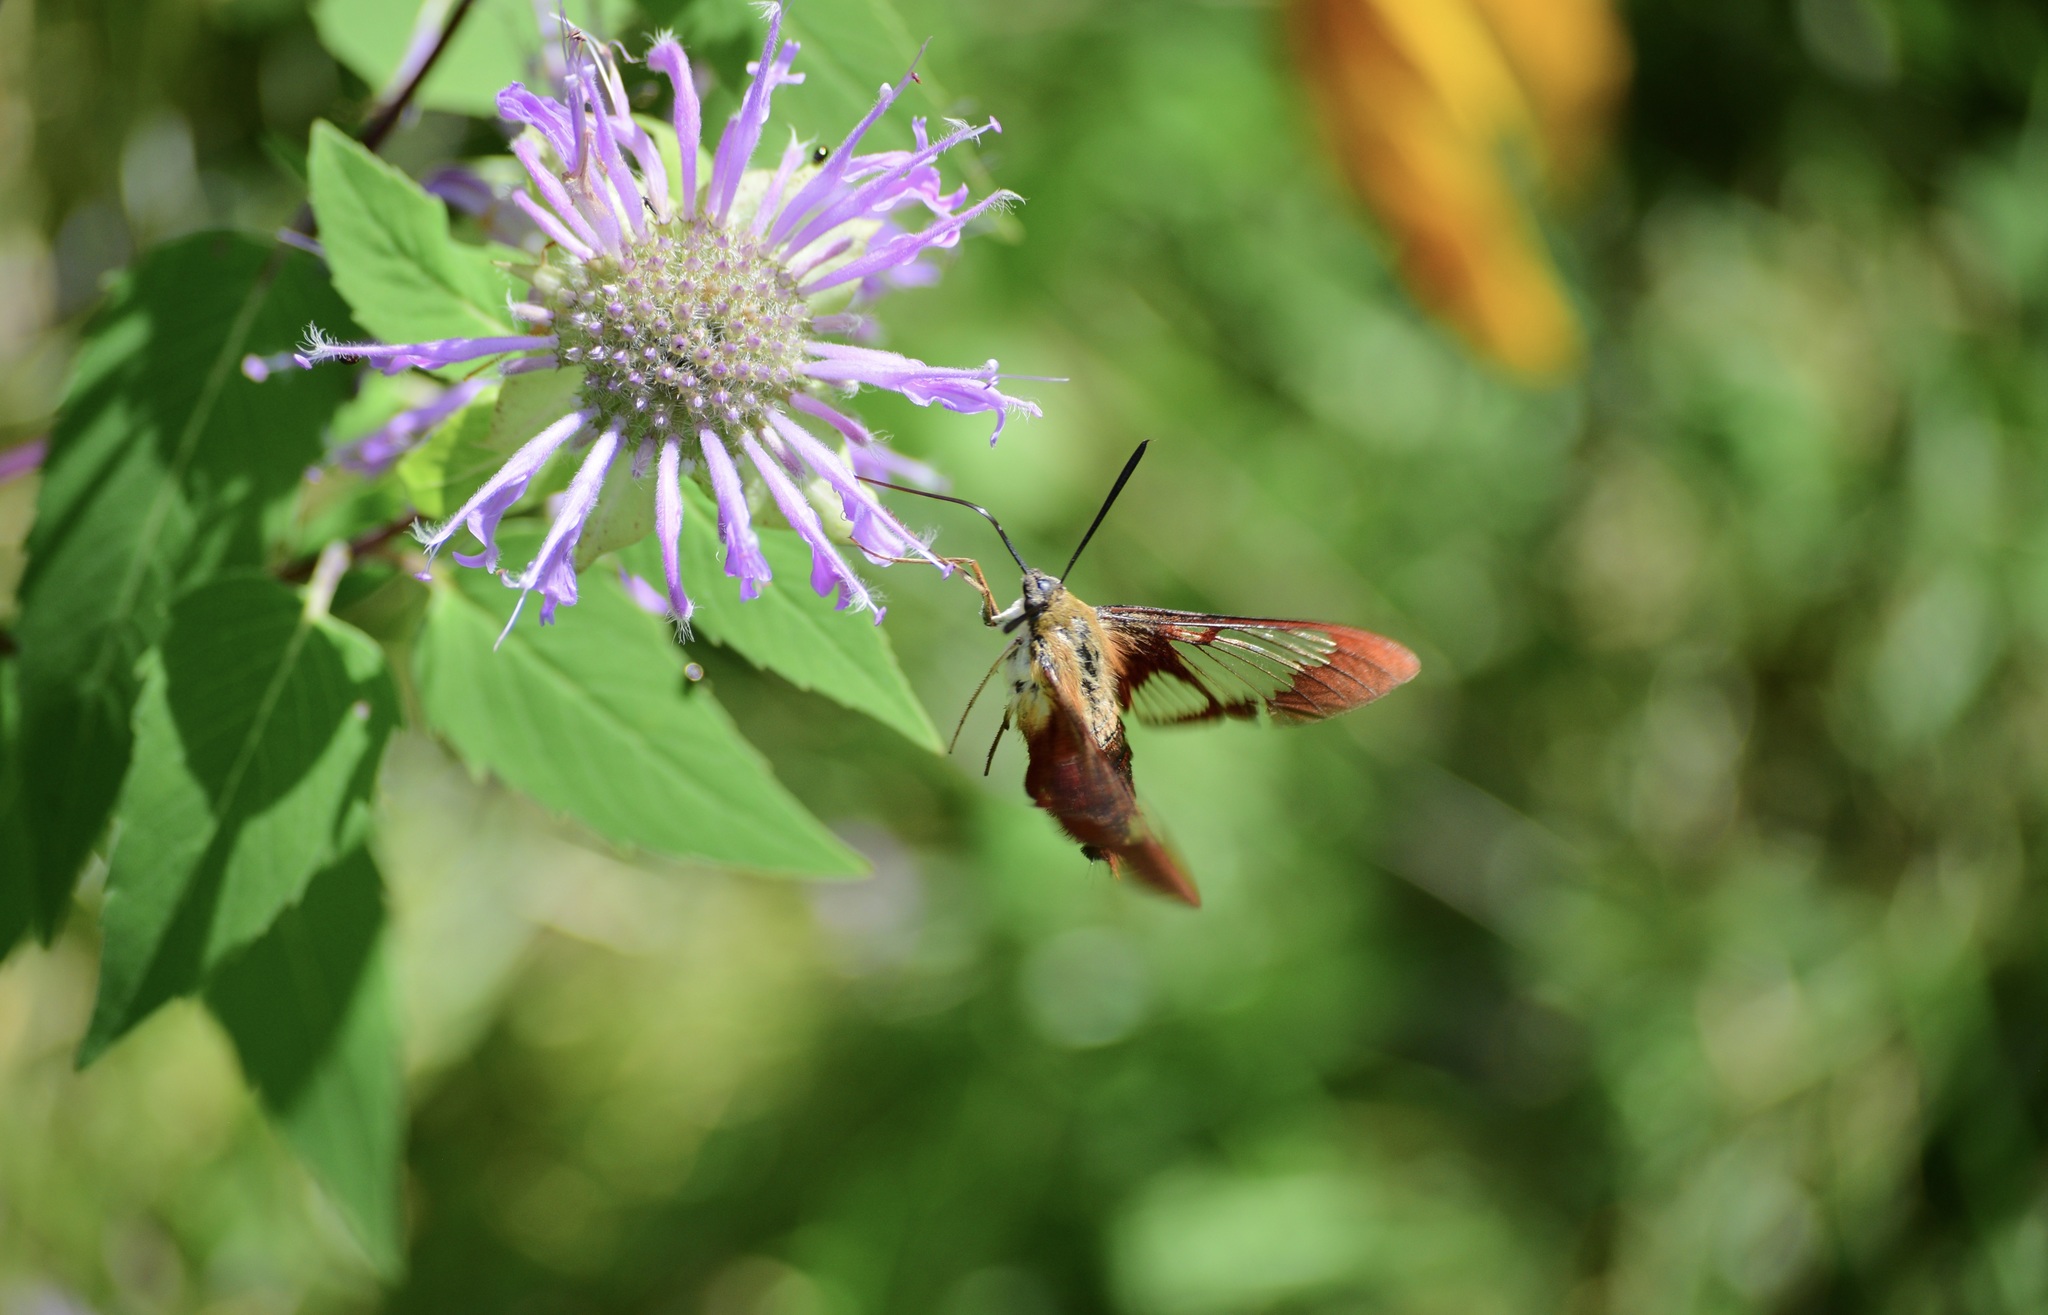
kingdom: Animalia
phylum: Arthropoda
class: Insecta
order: Lepidoptera
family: Sphingidae
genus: Hemaris
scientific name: Hemaris thysbe
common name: Common clear-wing
